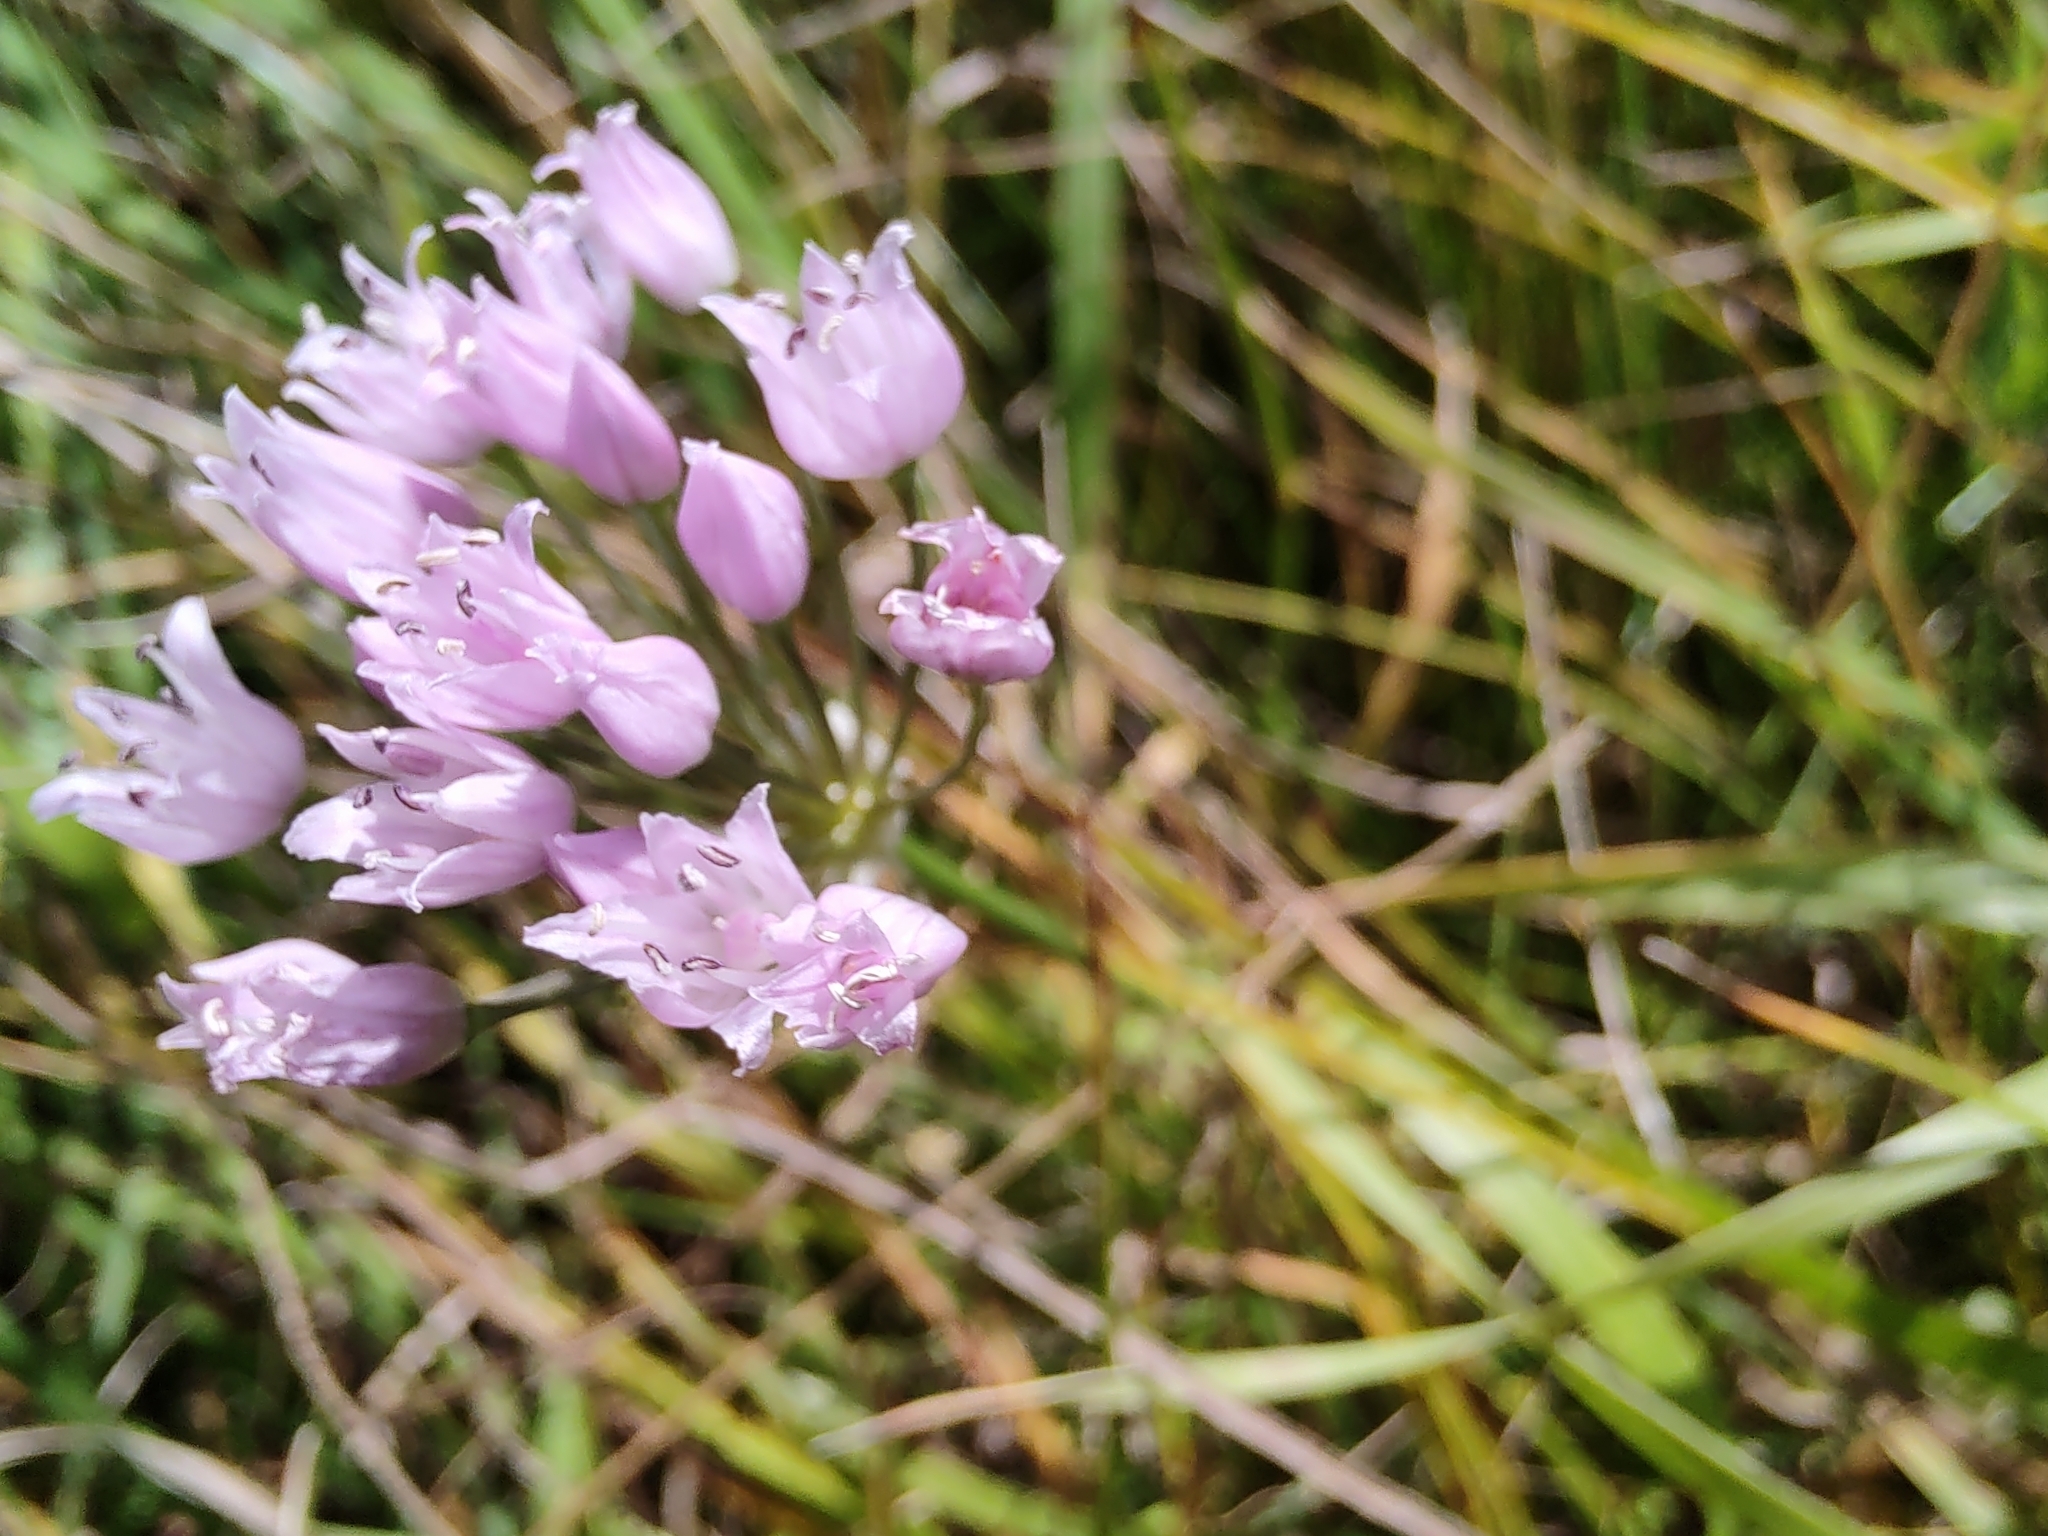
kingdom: Plantae
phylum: Tracheophyta
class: Liliopsida
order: Asparagales
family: Amaryllidaceae
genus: Allium
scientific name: Allium angulosum
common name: Mouse garlic
